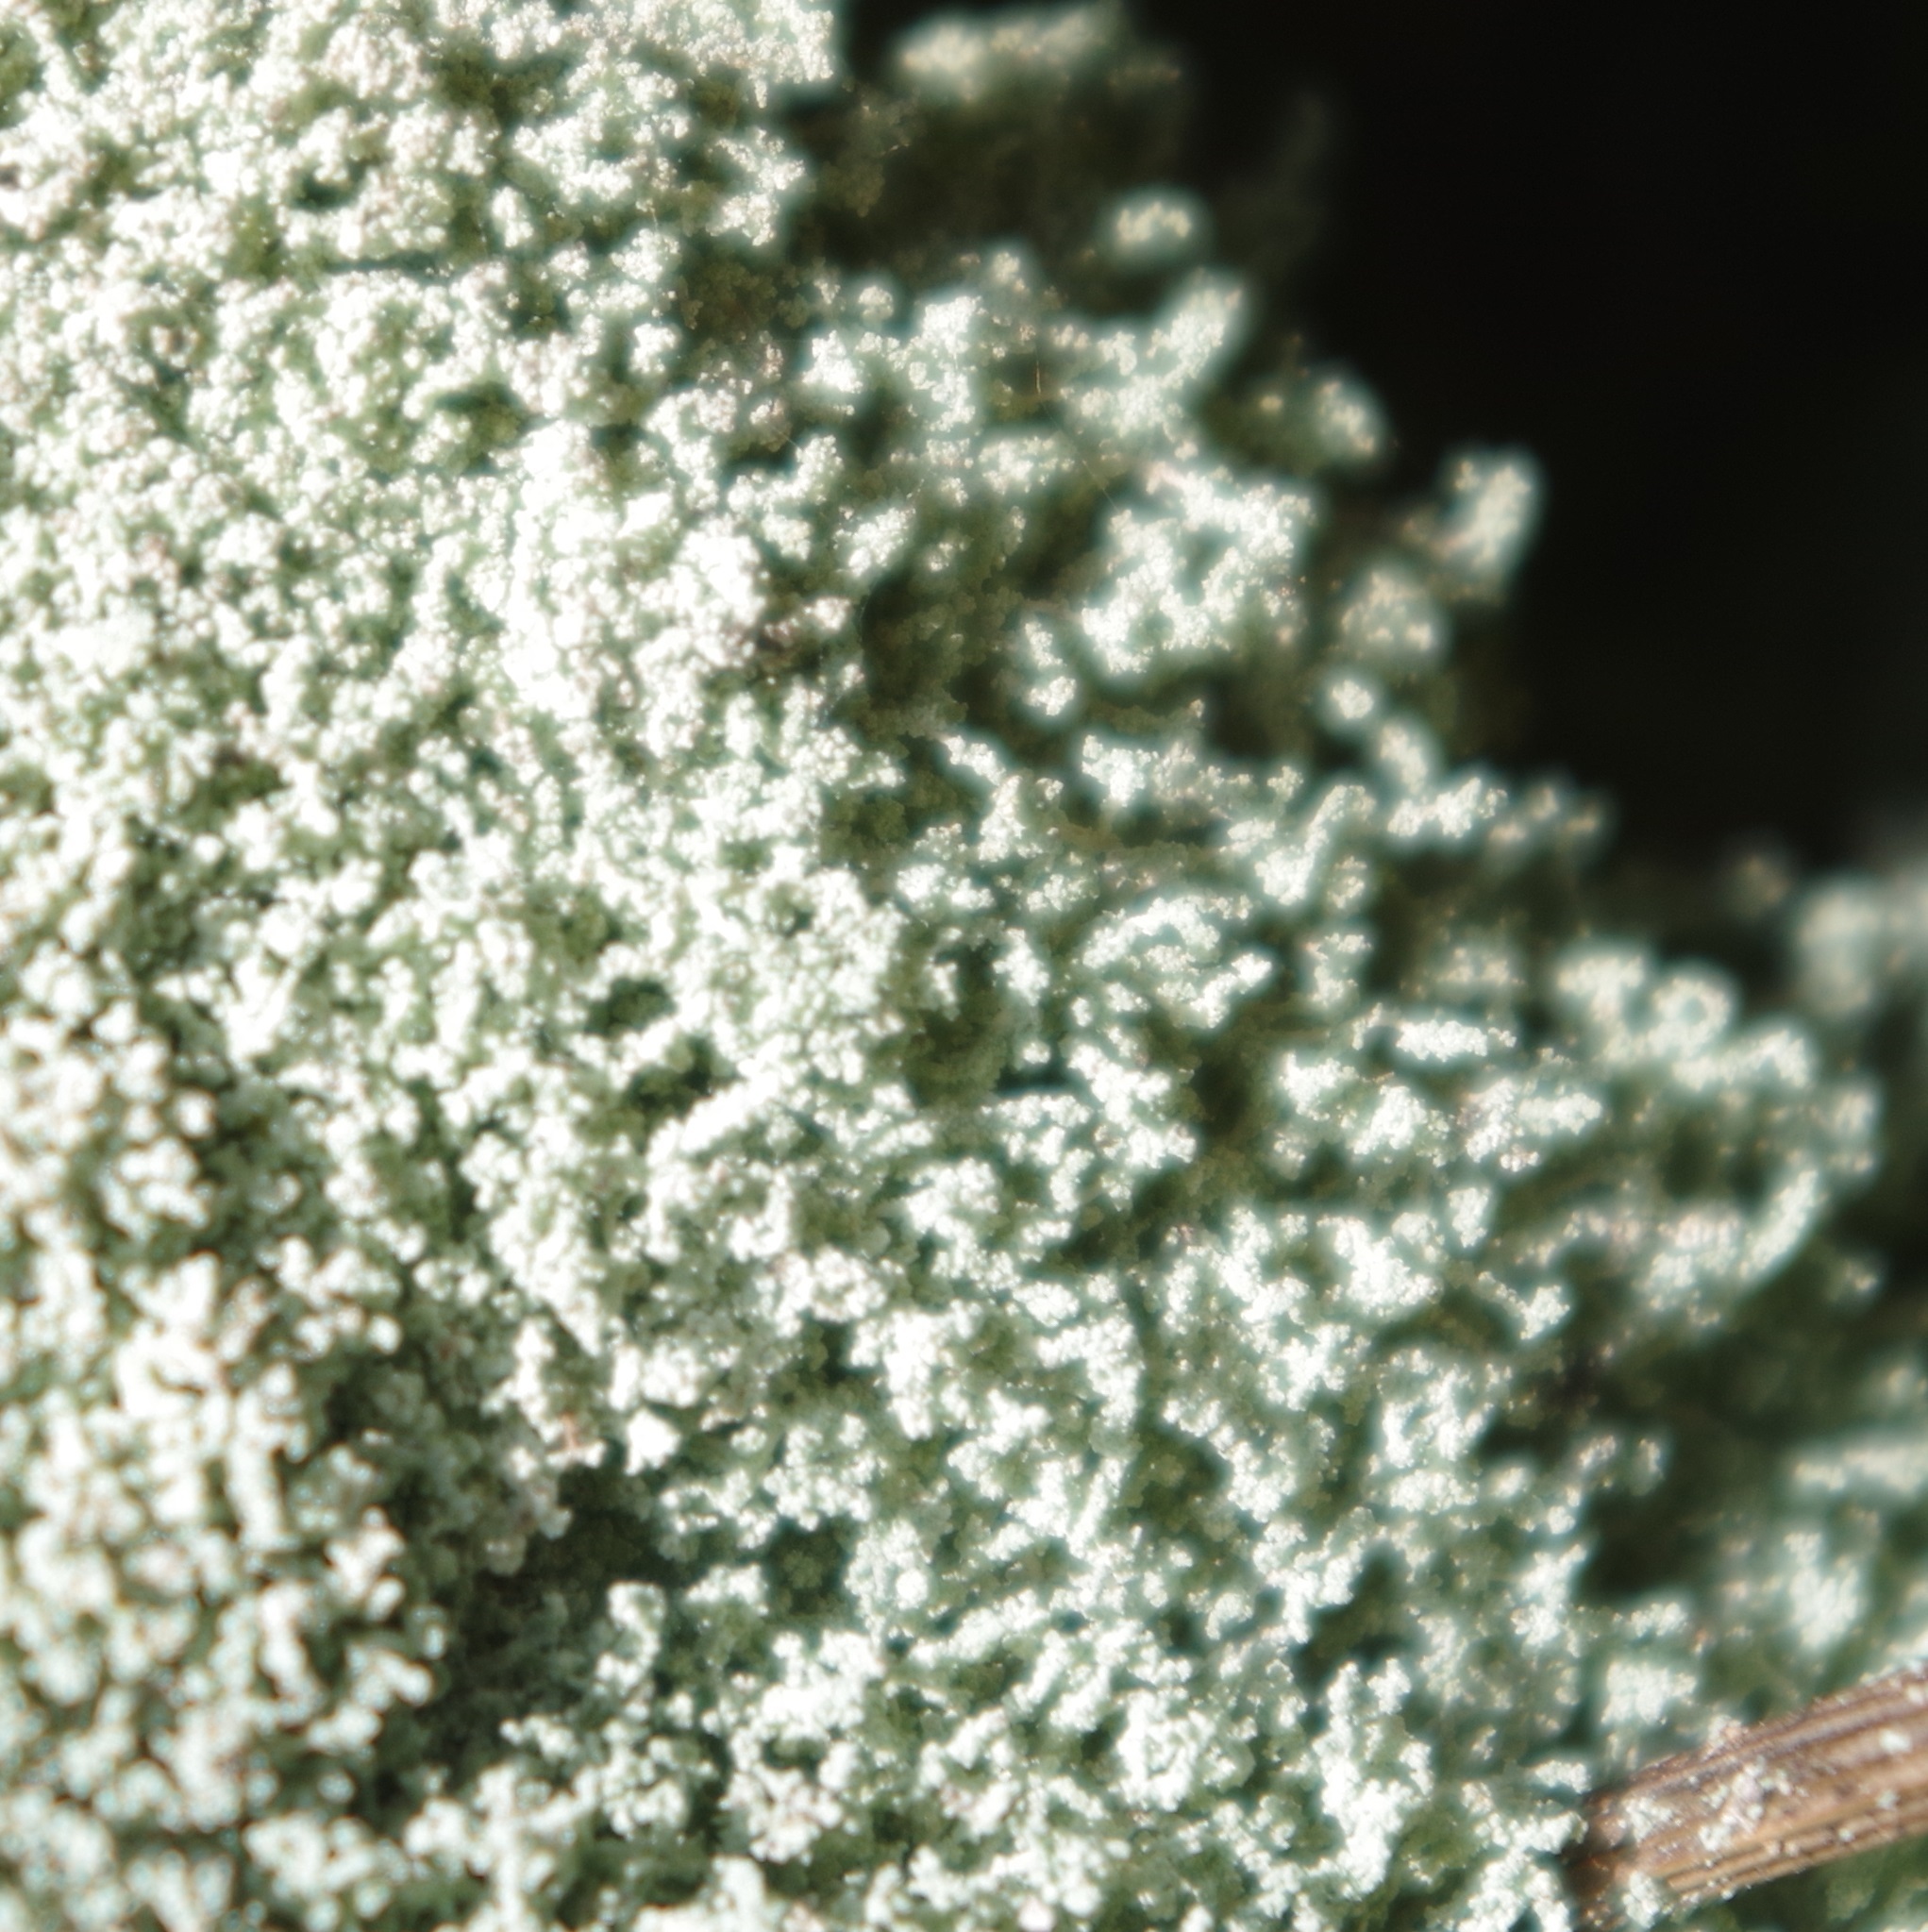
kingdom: Fungi
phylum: Ascomycota
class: Lecanoromycetes
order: Teloschistales
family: Leprocaulaceae
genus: Leprocaulon
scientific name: Leprocaulon quisquiliare
